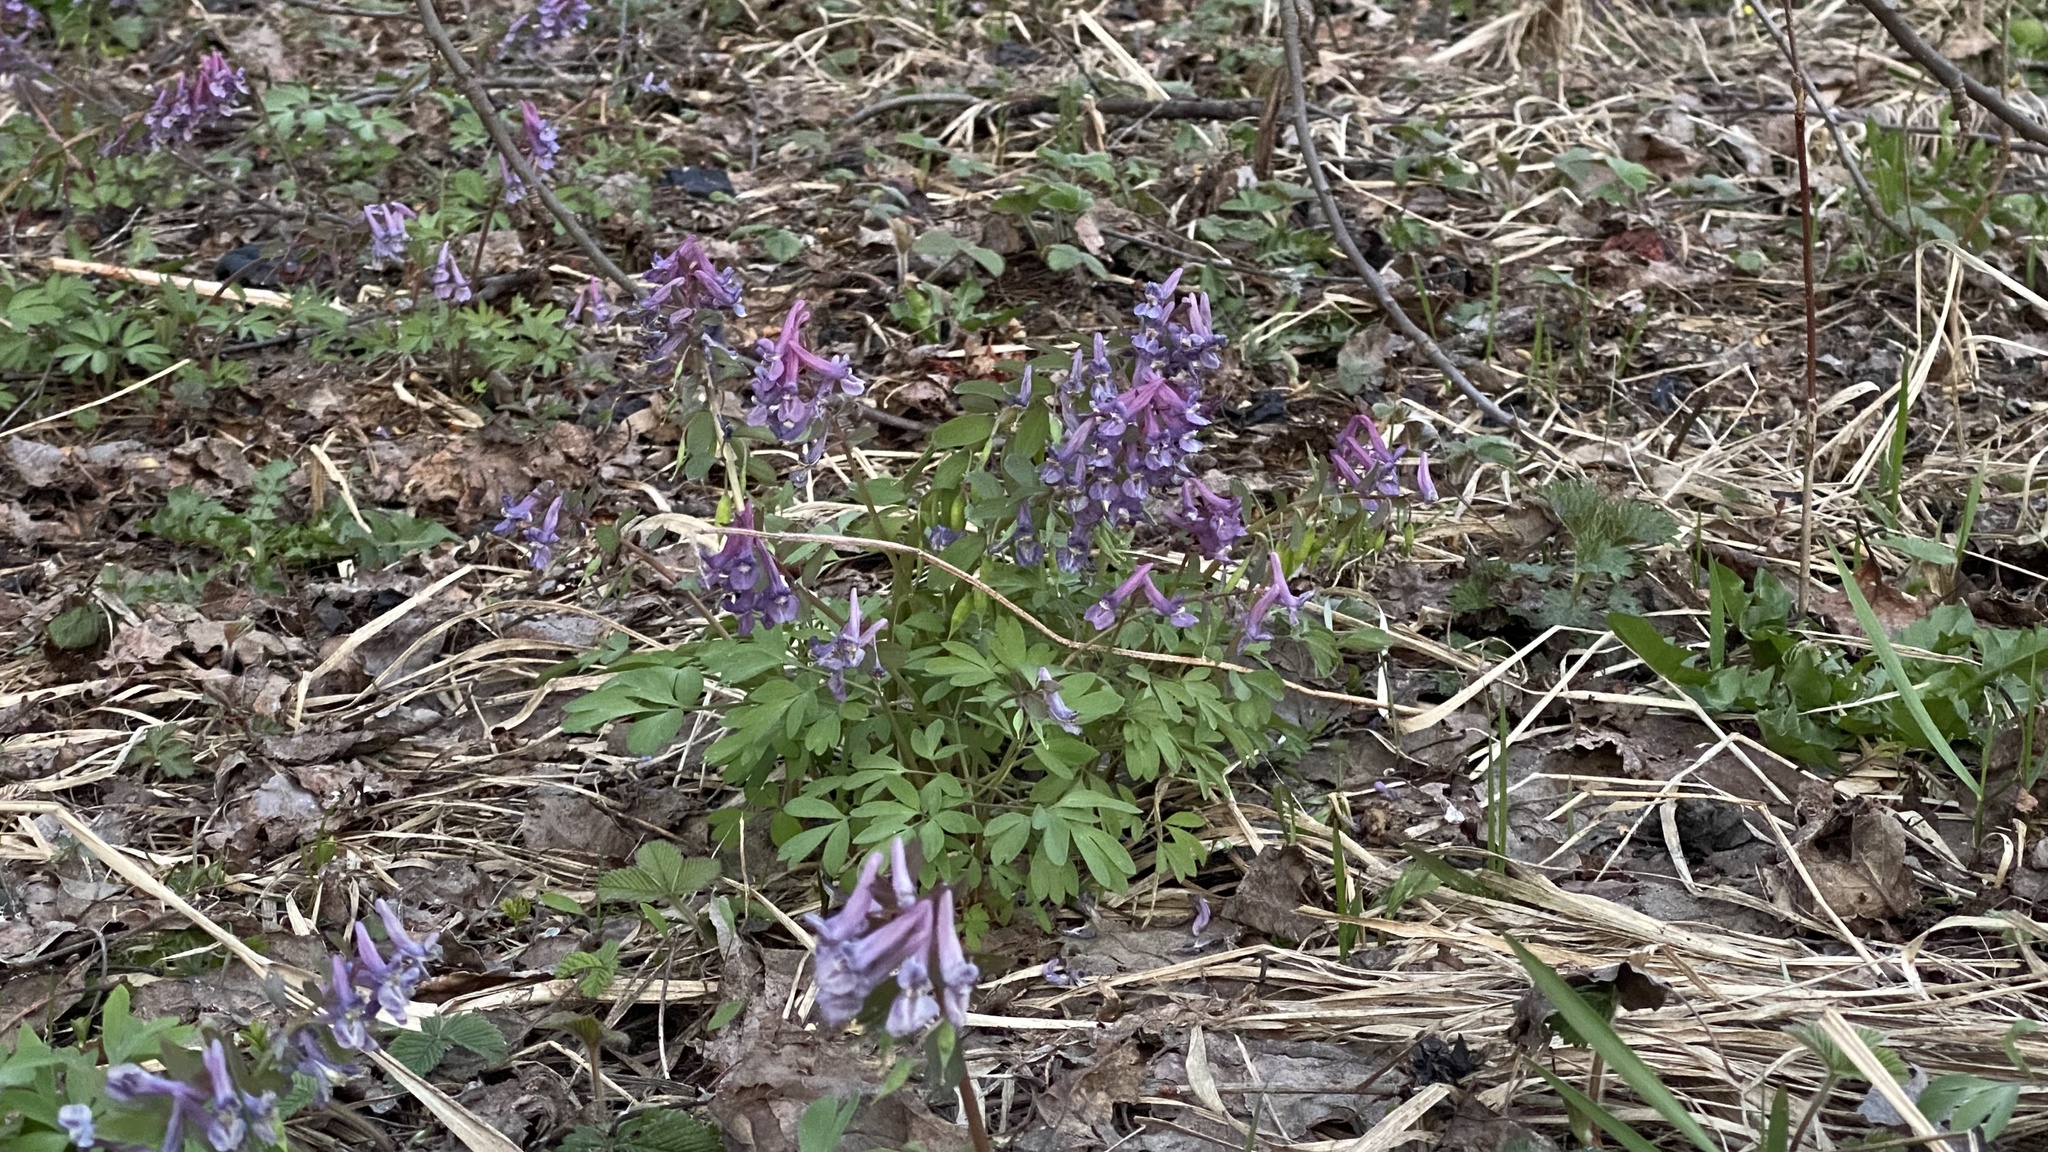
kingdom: Plantae
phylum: Tracheophyta
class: Magnoliopsida
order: Ranunculales
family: Papaveraceae
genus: Corydalis
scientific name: Corydalis solida
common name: Bird-in-a-bush
